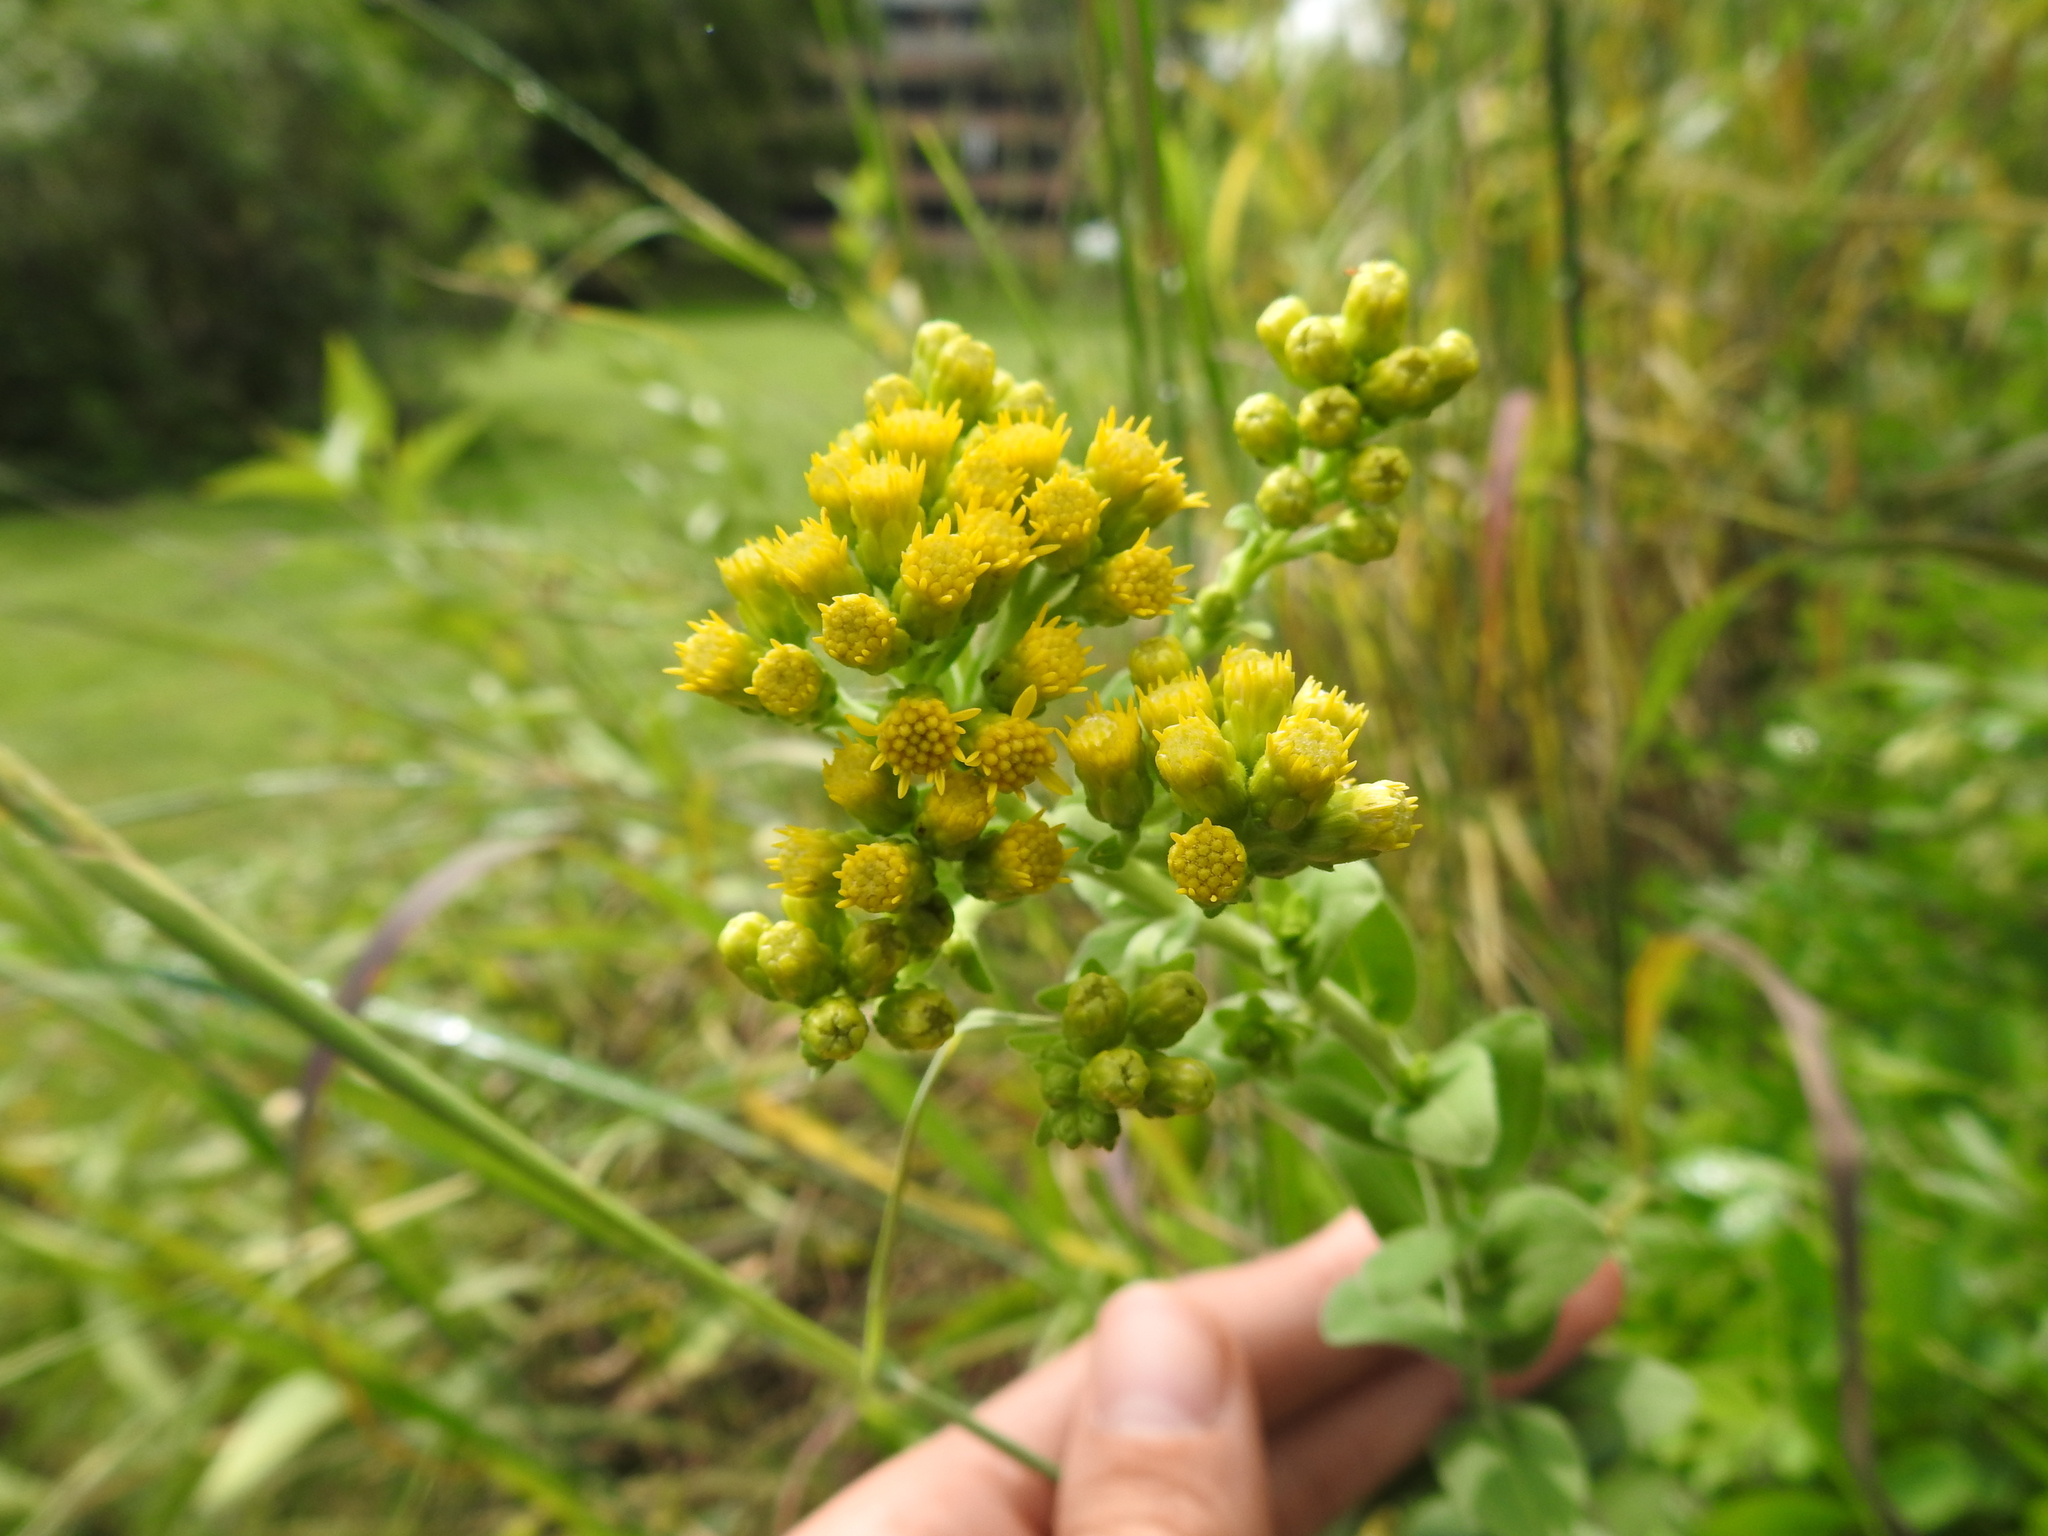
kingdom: Plantae
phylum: Tracheophyta
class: Magnoliopsida
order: Asterales
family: Asteraceae
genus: Solidago
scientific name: Solidago rigida
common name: Rigid goldenrod
